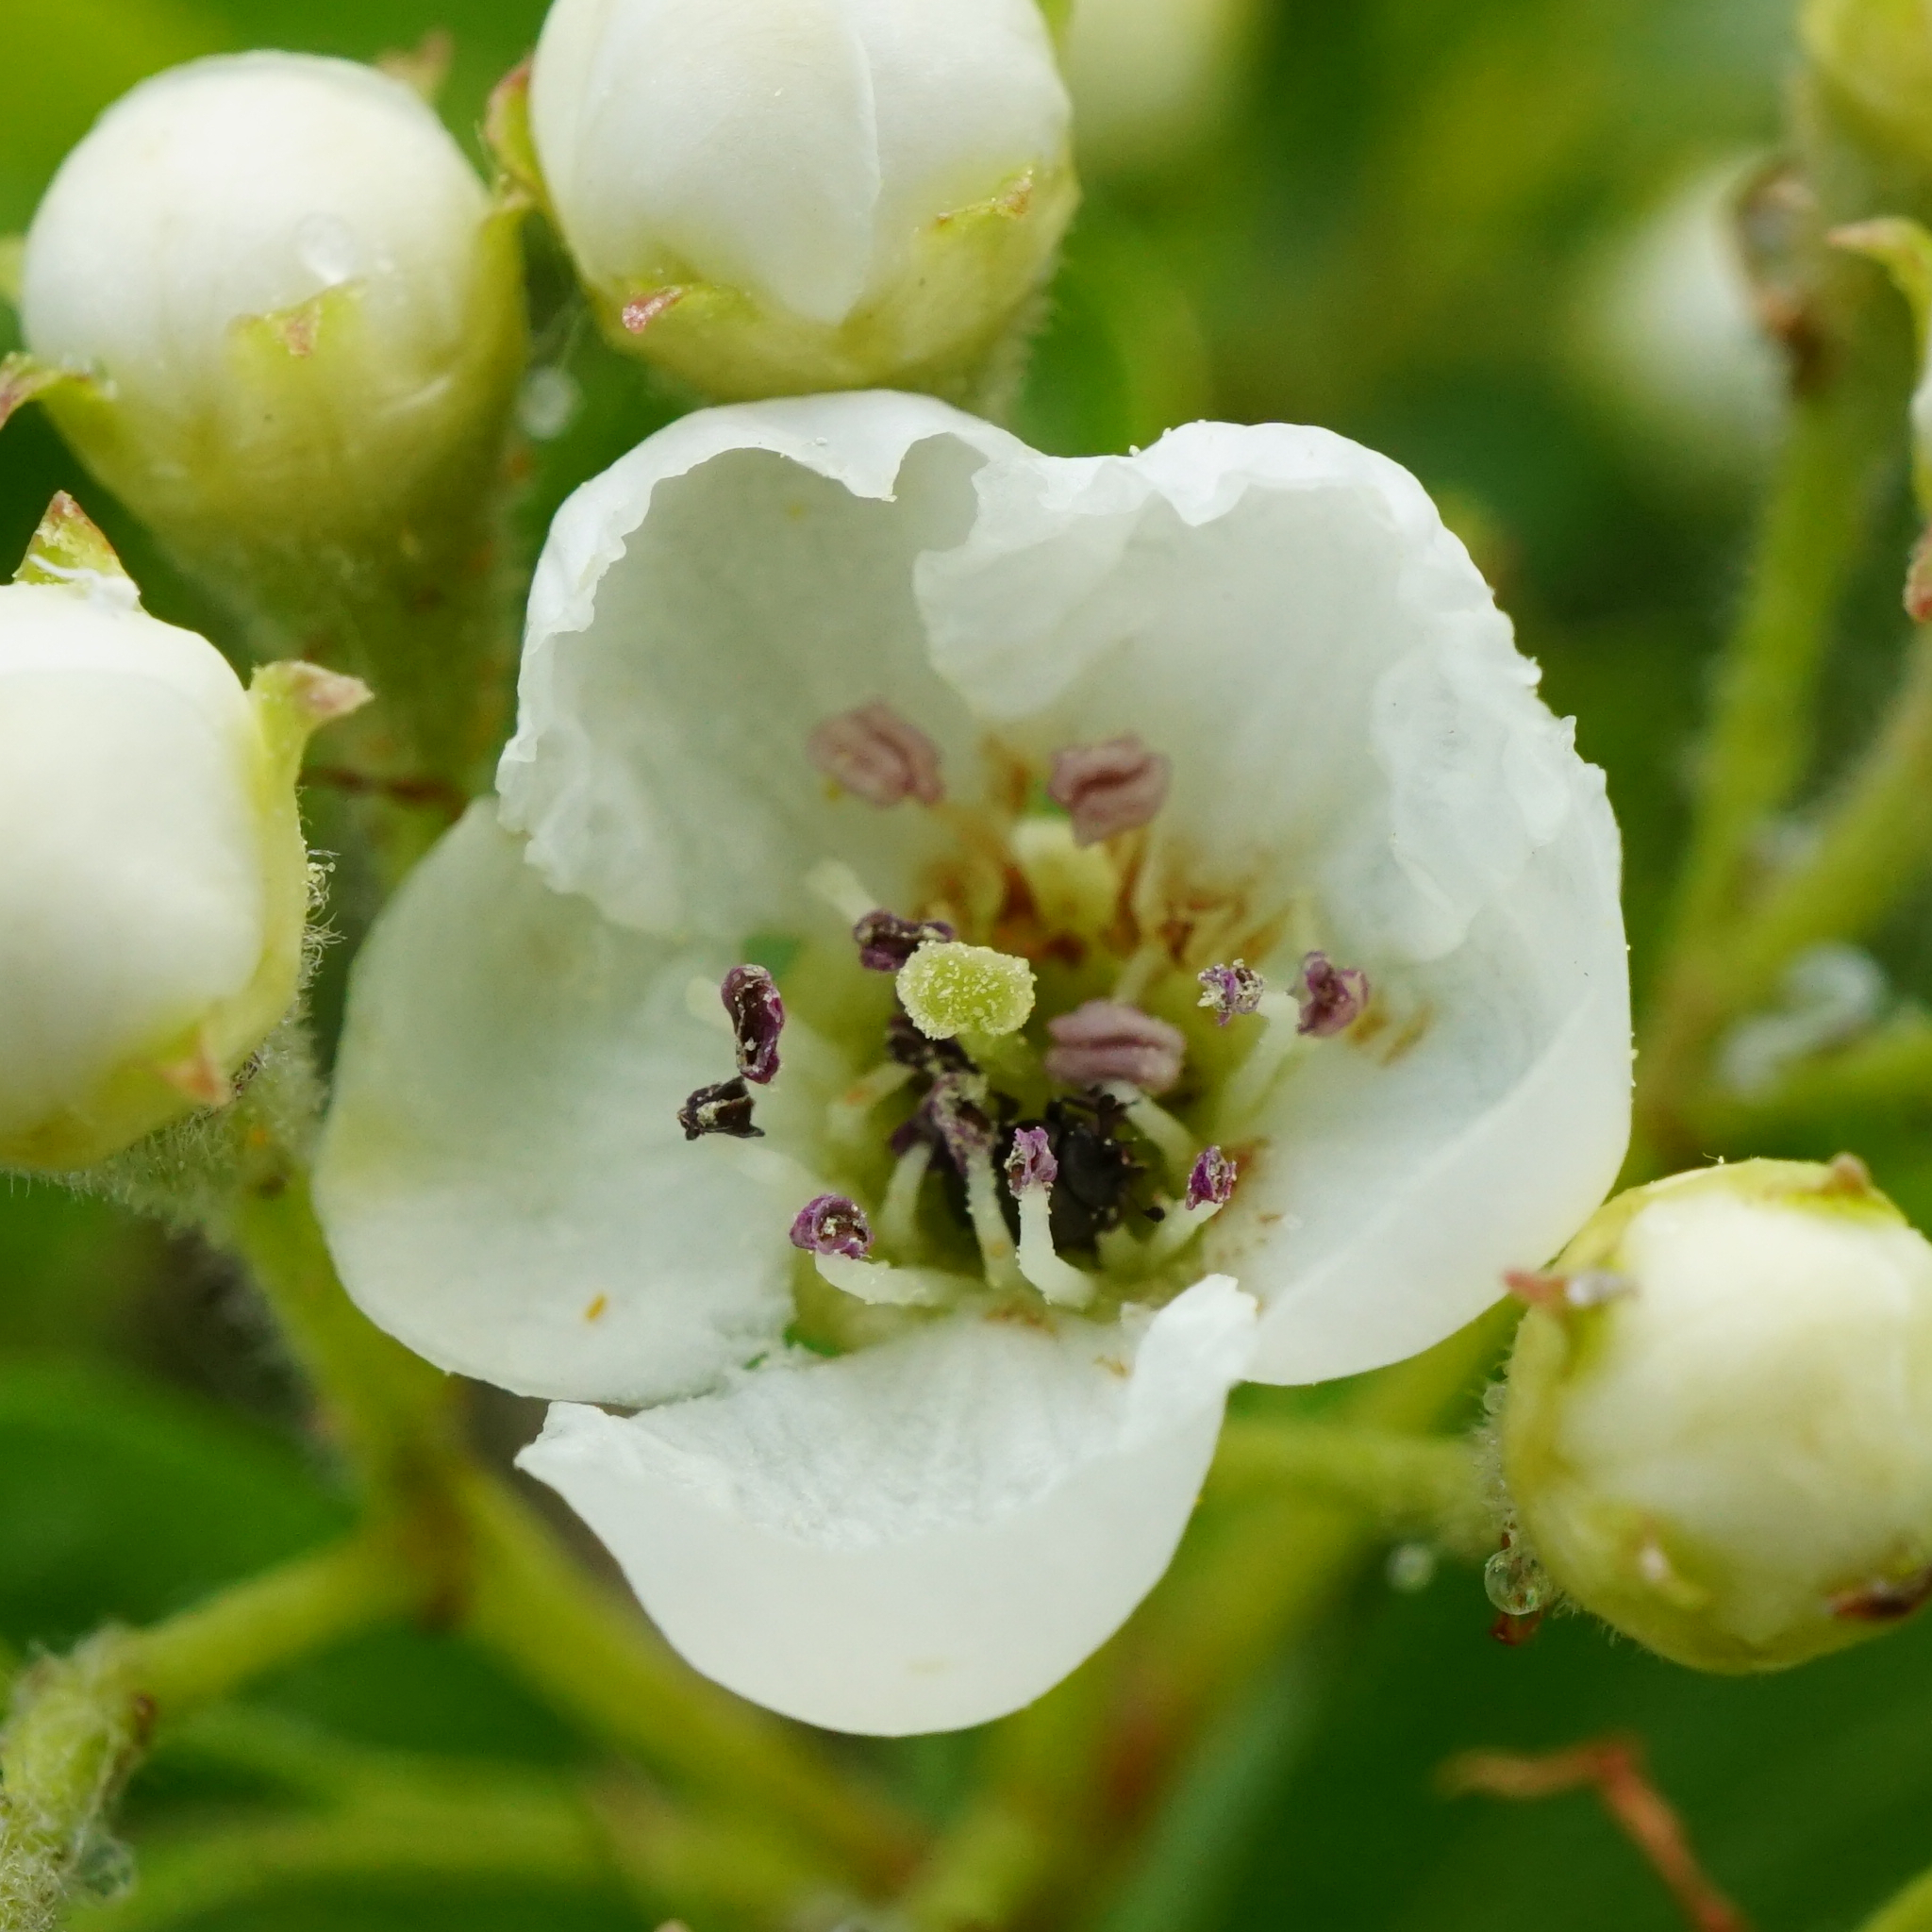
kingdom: Plantae
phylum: Tracheophyta
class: Magnoliopsida
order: Rosales
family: Rosaceae
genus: Crataegus
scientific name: Crataegus monogyna
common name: Hawthorn
